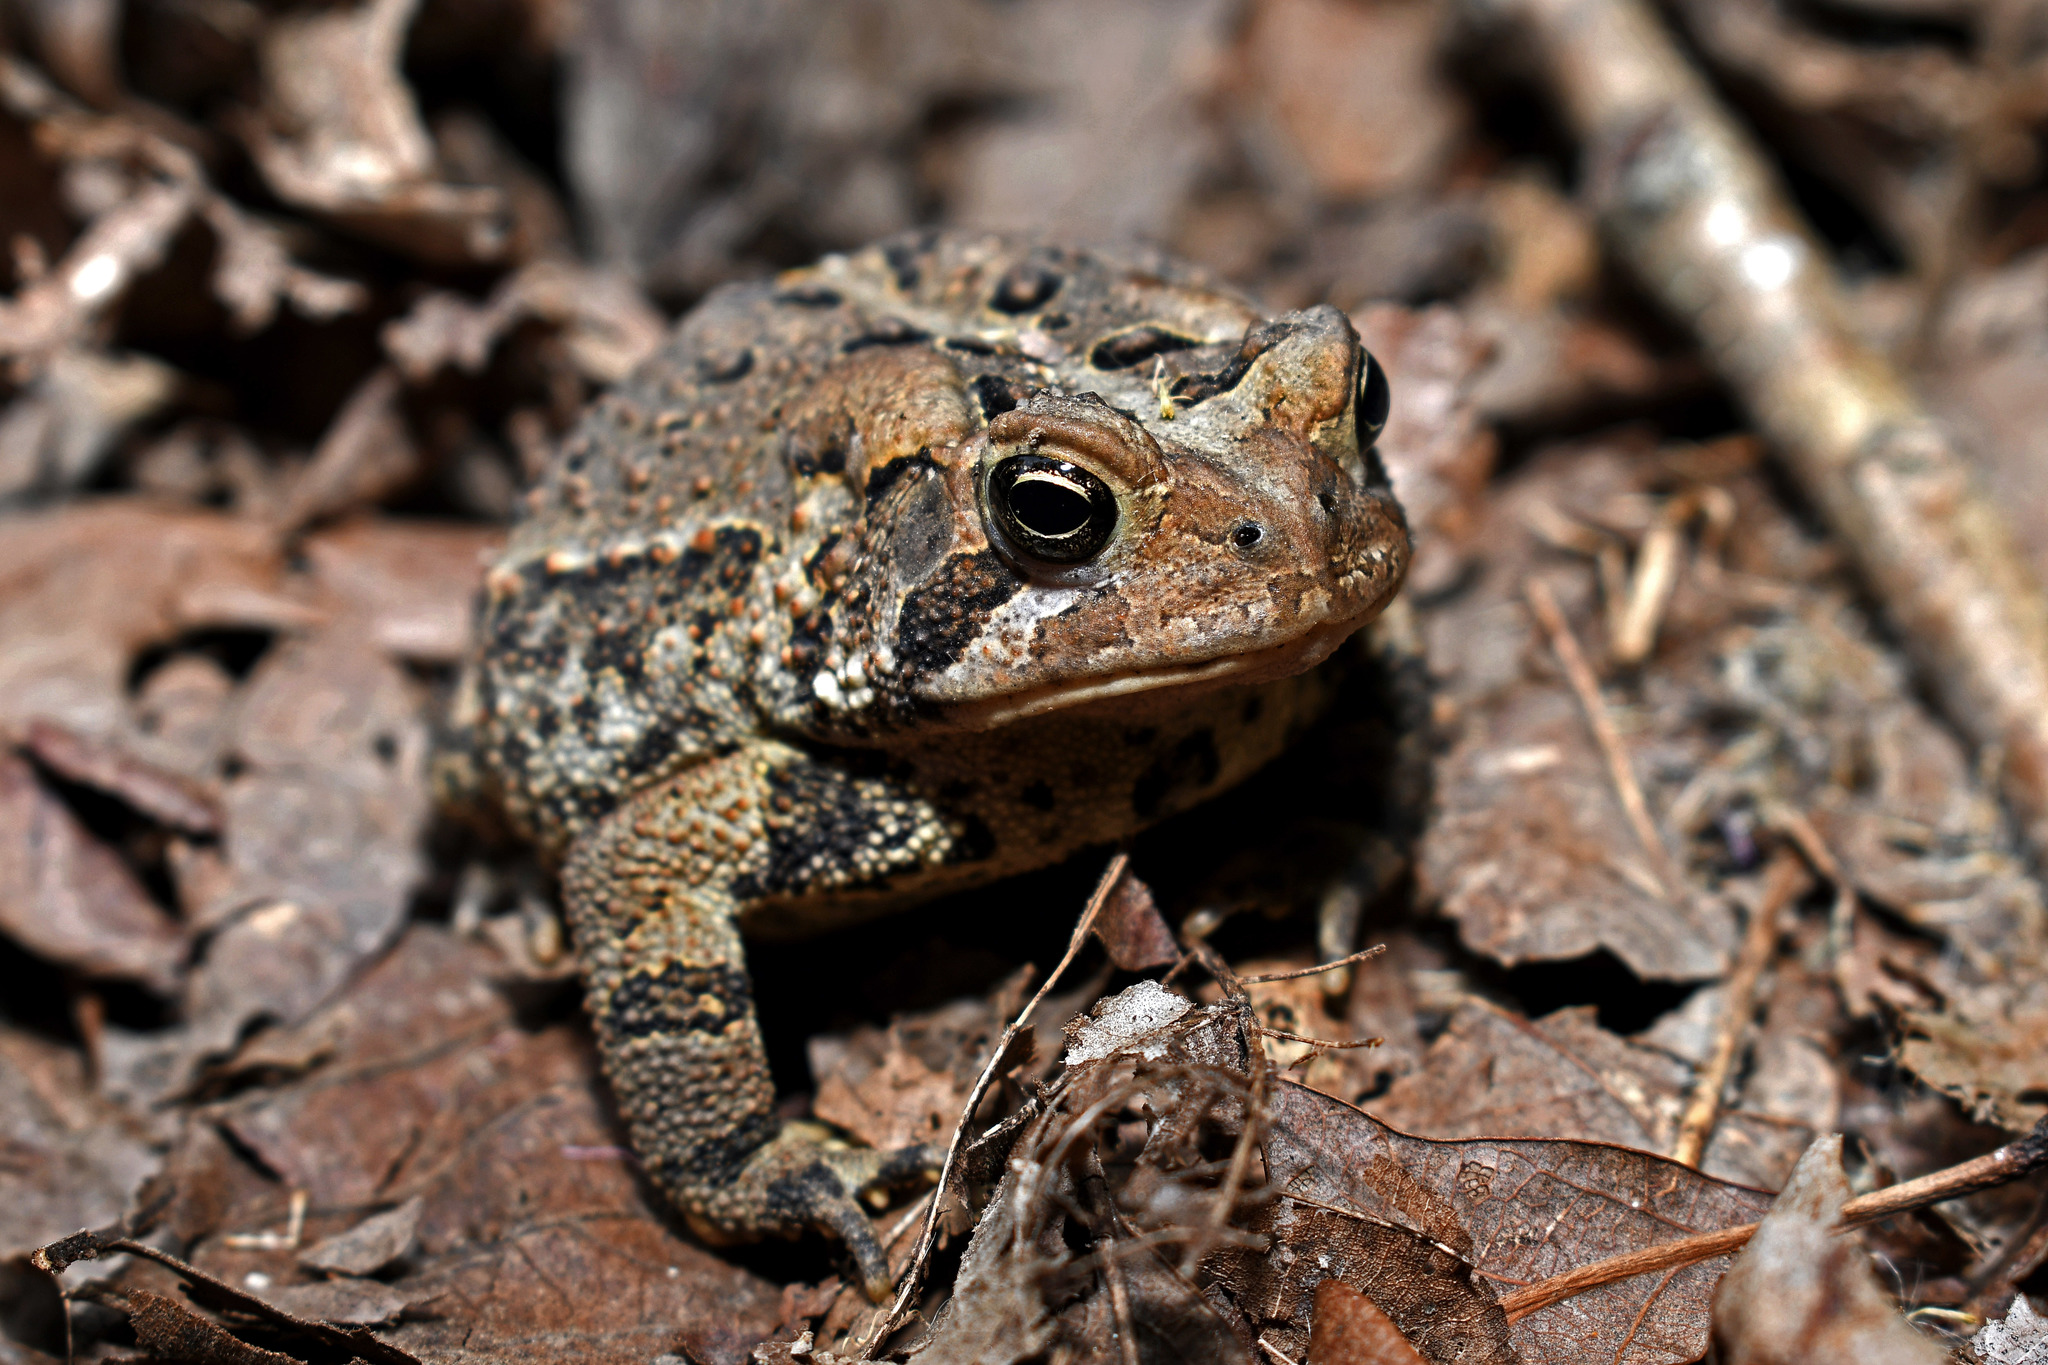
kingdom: Animalia
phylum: Chordata
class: Amphibia
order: Anura
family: Bufonidae
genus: Anaxyrus
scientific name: Anaxyrus americanus
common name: American toad
